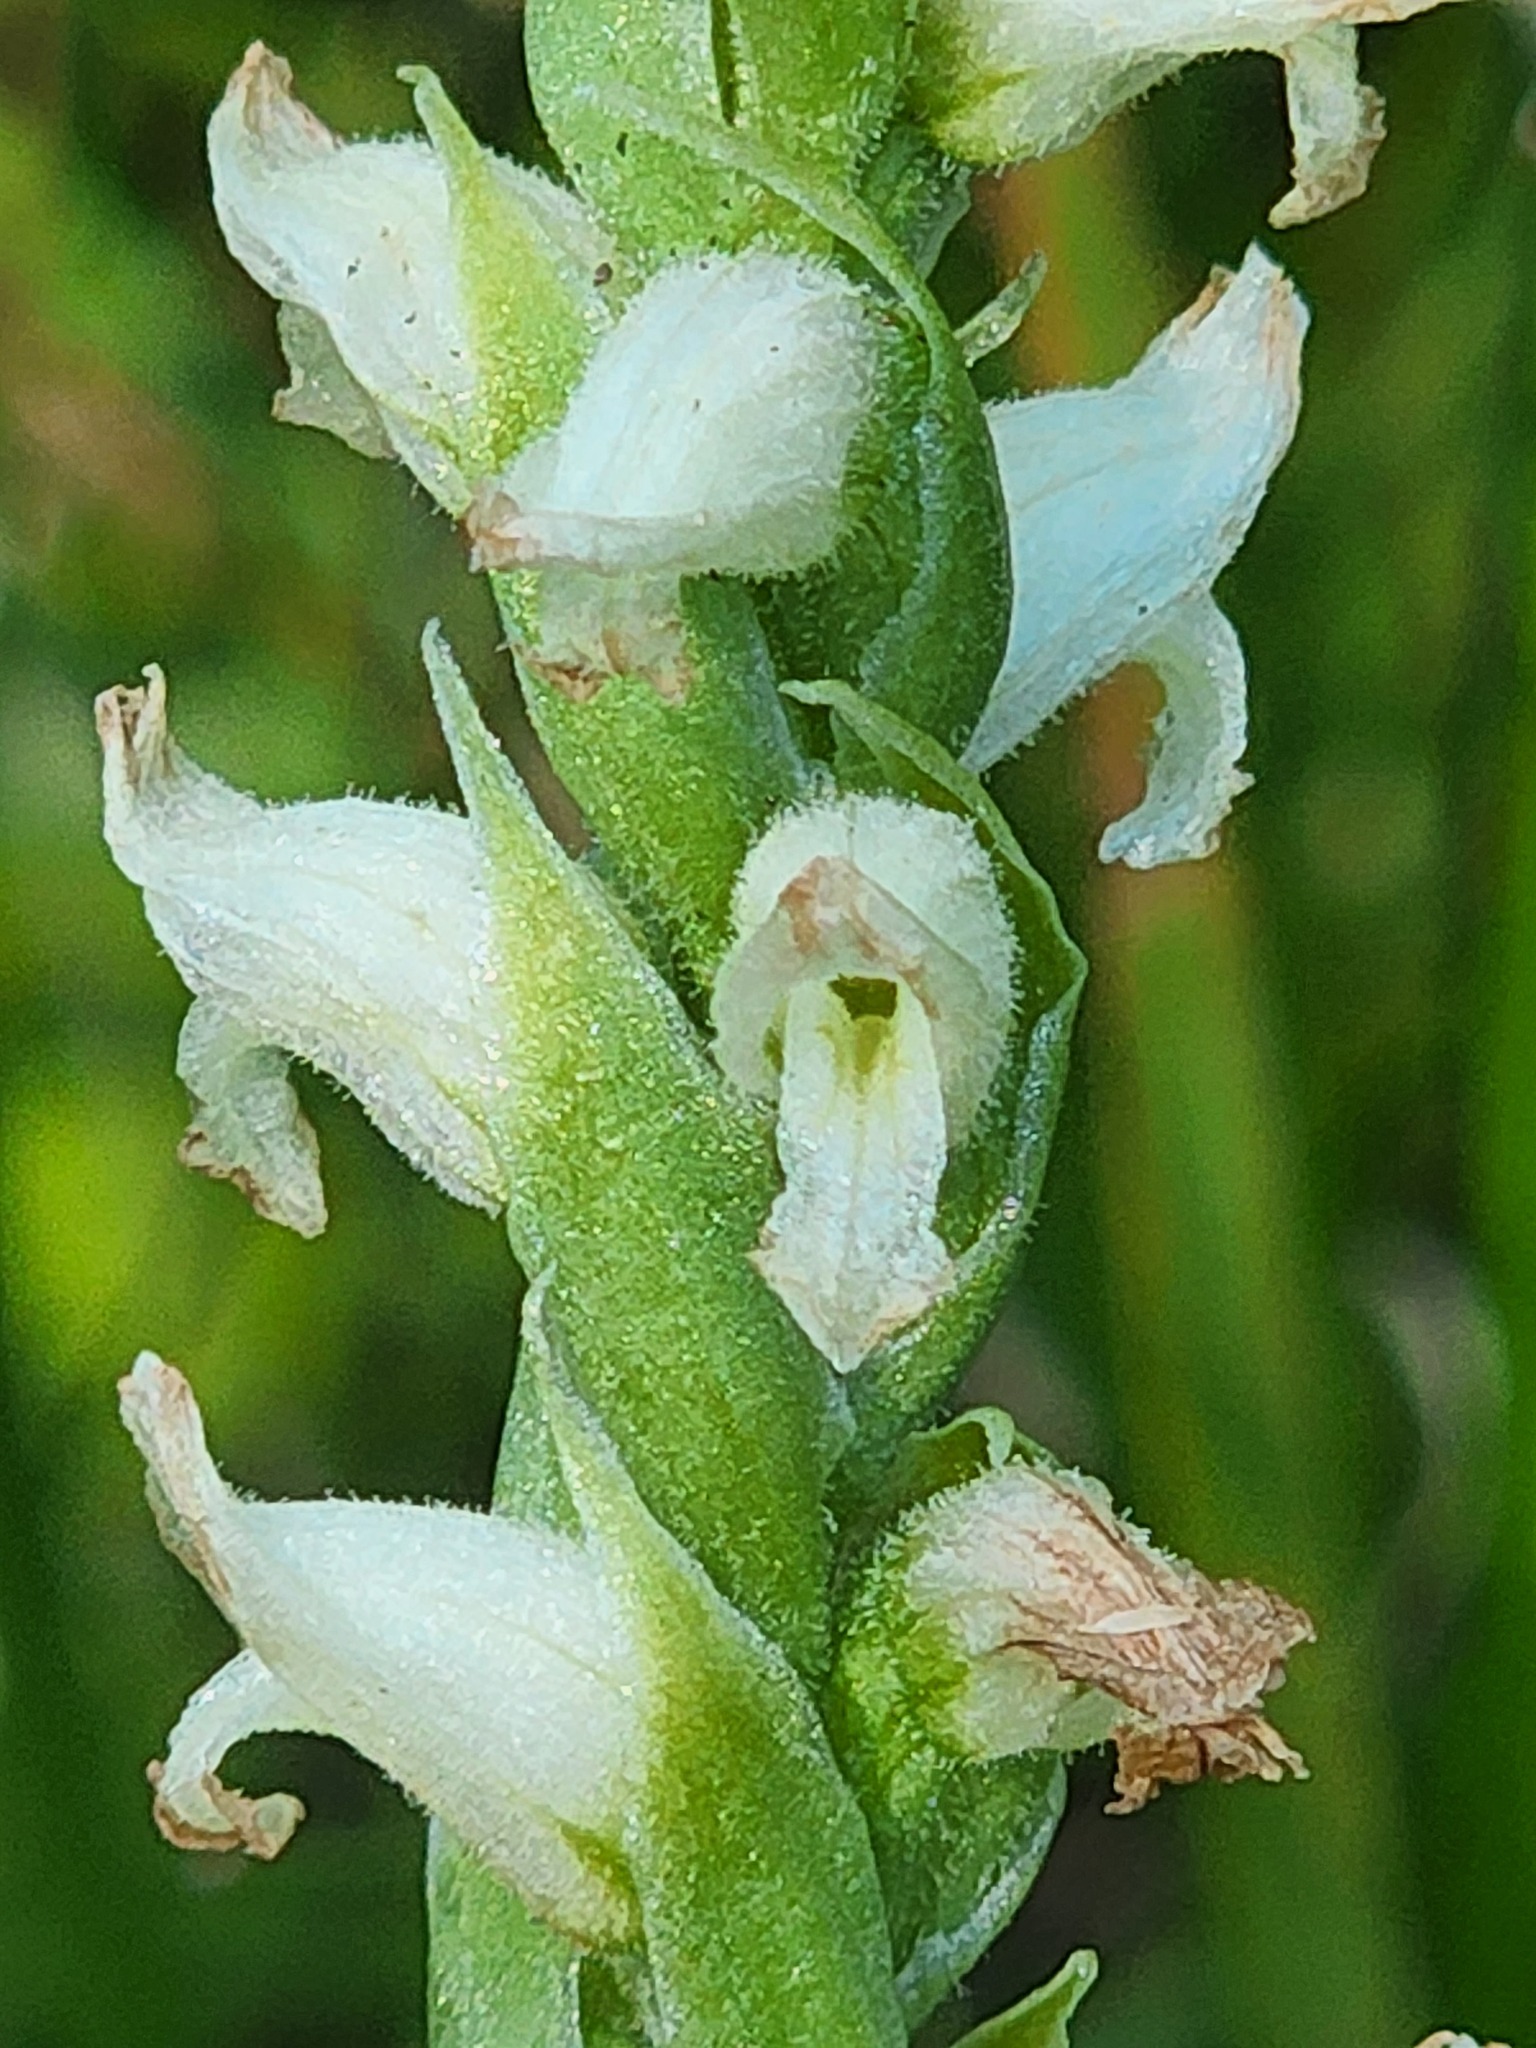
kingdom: Plantae
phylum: Tracheophyta
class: Liliopsida
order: Asparagales
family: Orchidaceae
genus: Spiranthes
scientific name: Spiranthes romanzoffiana
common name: Irish lady's-tresses
